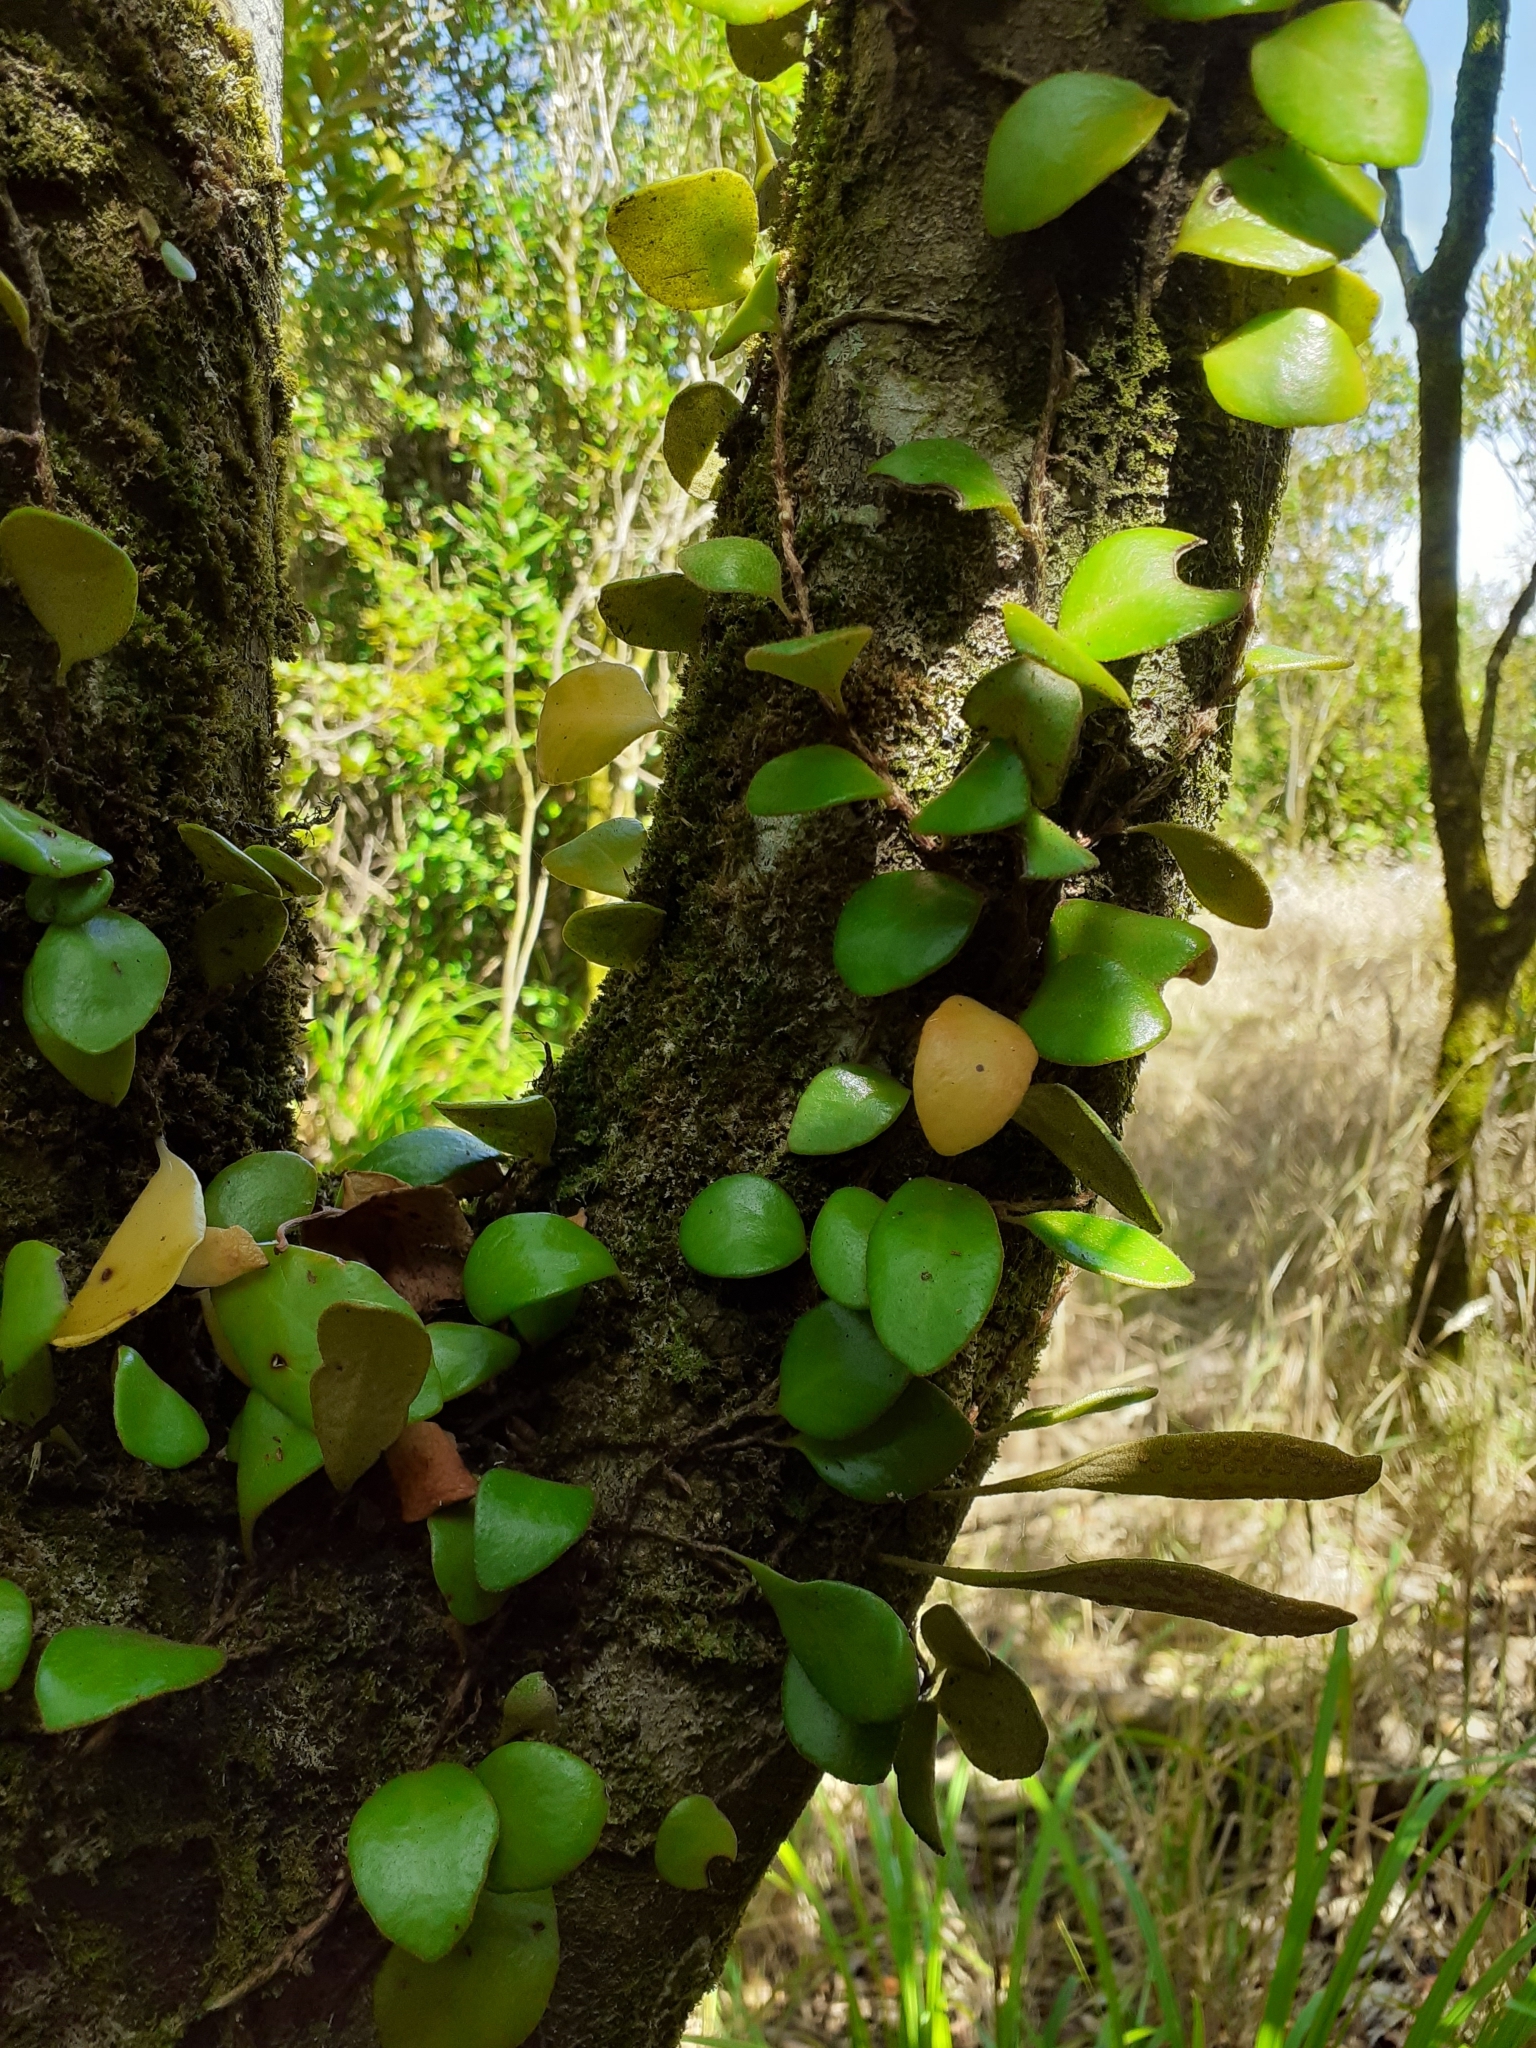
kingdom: Plantae
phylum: Tracheophyta
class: Polypodiopsida
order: Polypodiales
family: Polypodiaceae
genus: Pyrrosia
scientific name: Pyrrosia eleagnifolia
